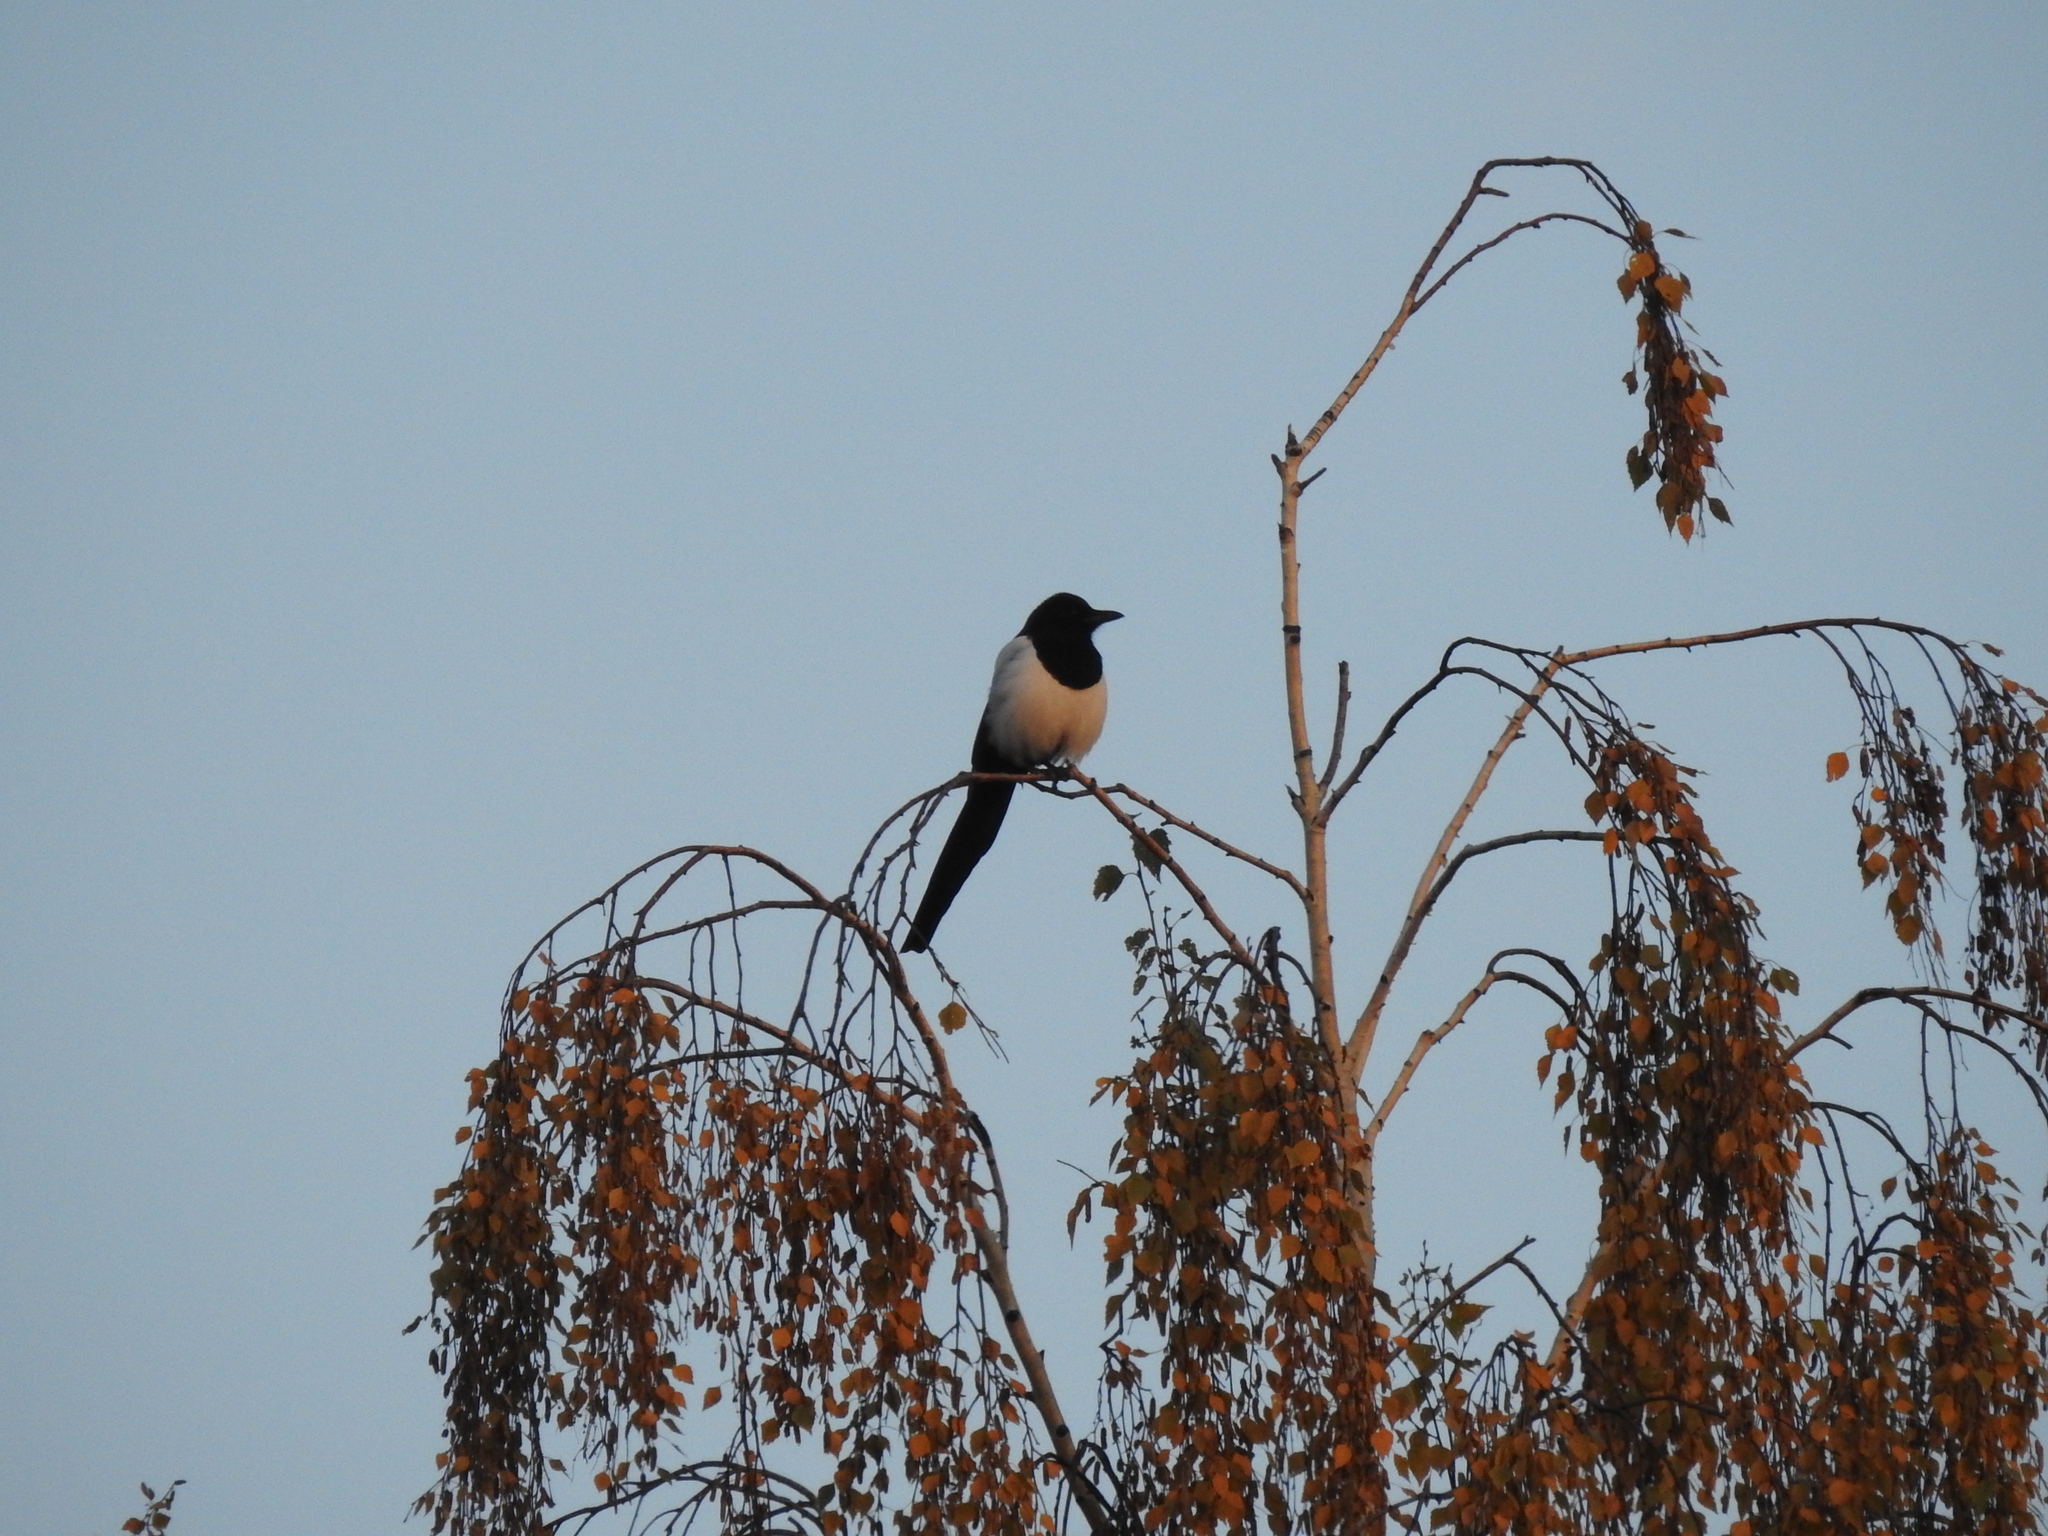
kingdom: Animalia
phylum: Chordata
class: Aves
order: Passeriformes
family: Corvidae
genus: Pica
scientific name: Pica pica
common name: Eurasian magpie
